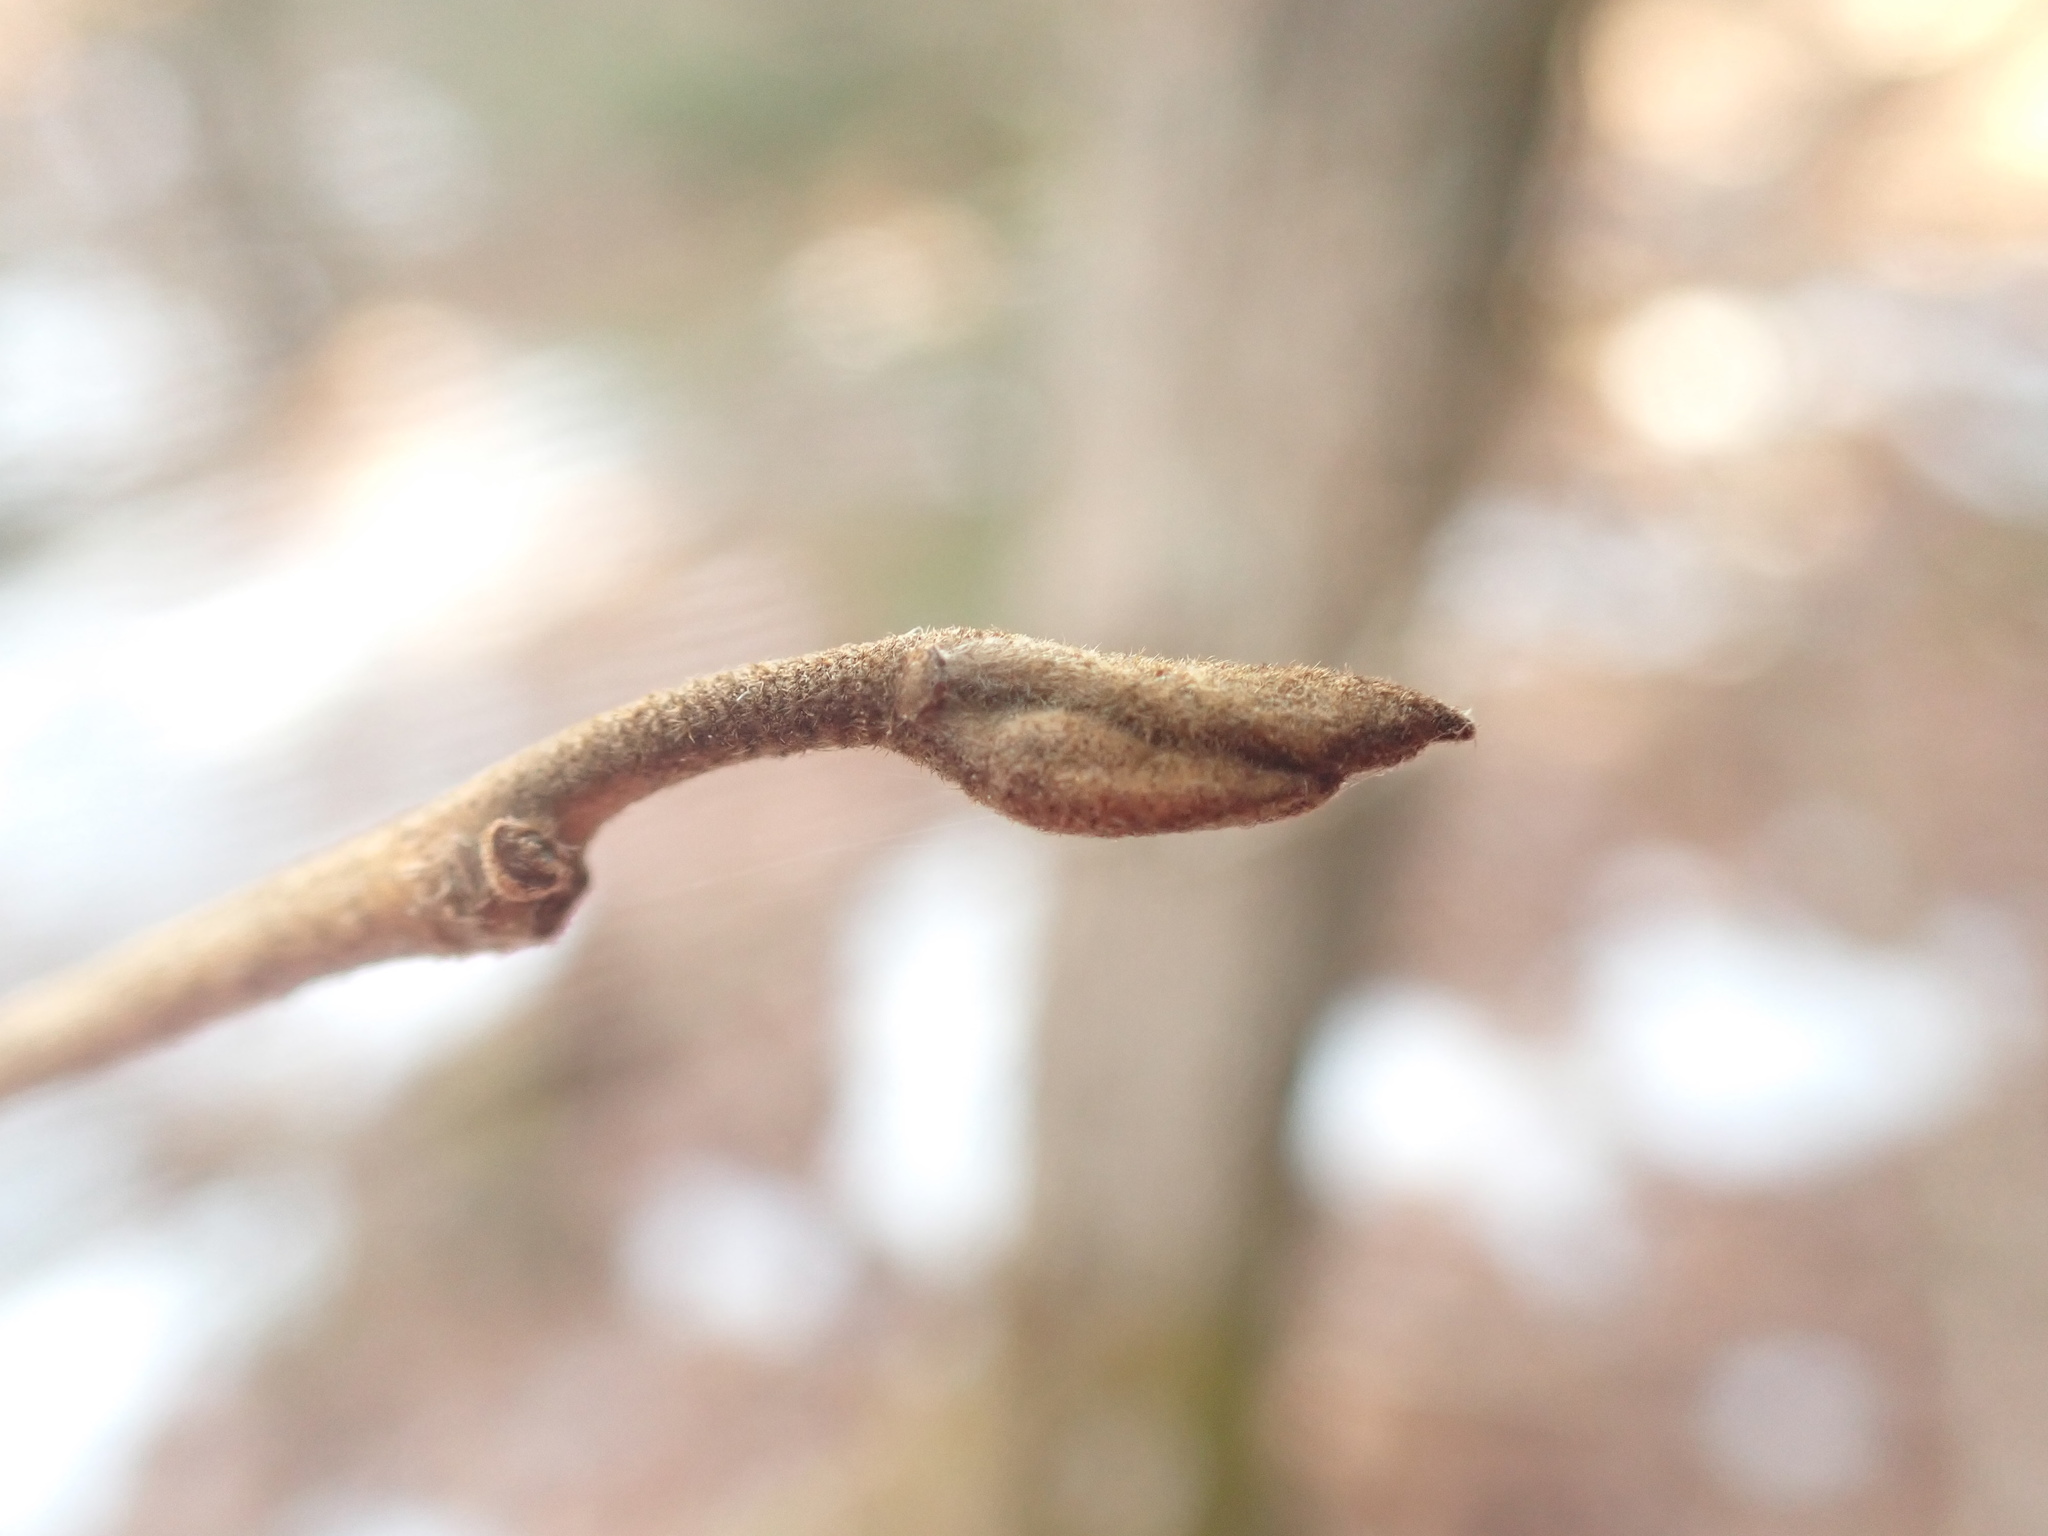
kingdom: Plantae
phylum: Tracheophyta
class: Magnoliopsida
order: Saxifragales
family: Hamamelidaceae
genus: Hamamelis
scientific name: Hamamelis virginiana
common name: Witch-hazel
